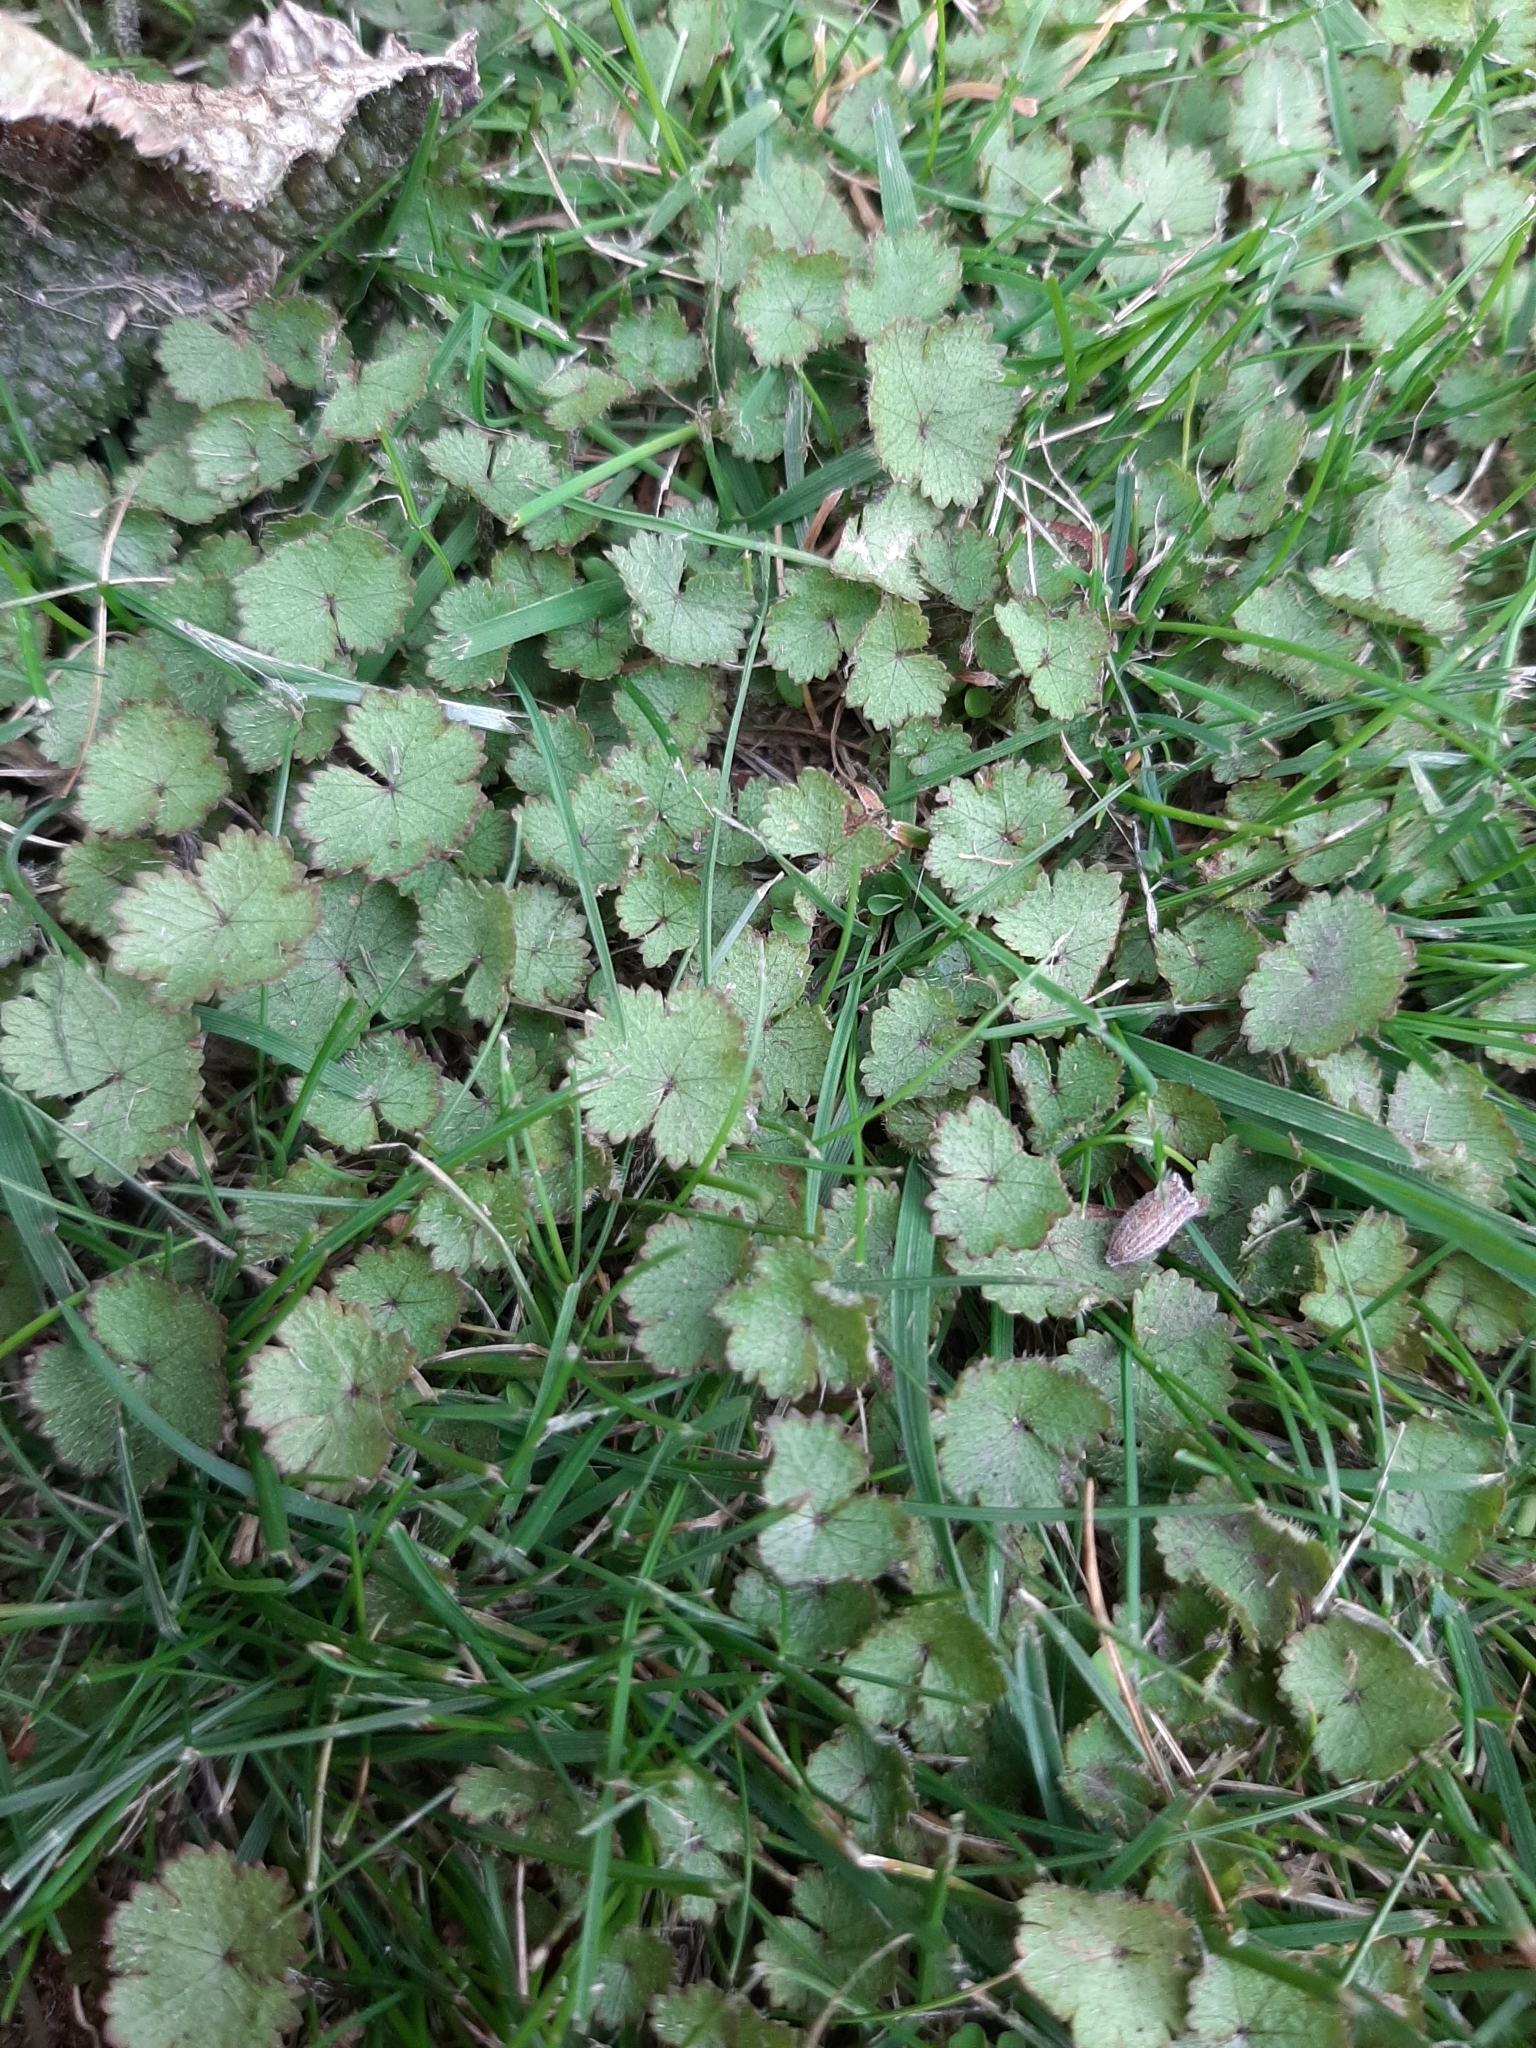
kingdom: Plantae
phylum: Tracheophyta
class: Magnoliopsida
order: Apiales
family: Araliaceae
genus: Hydrocotyle
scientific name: Hydrocotyle moschata
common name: Hairy pennywort
